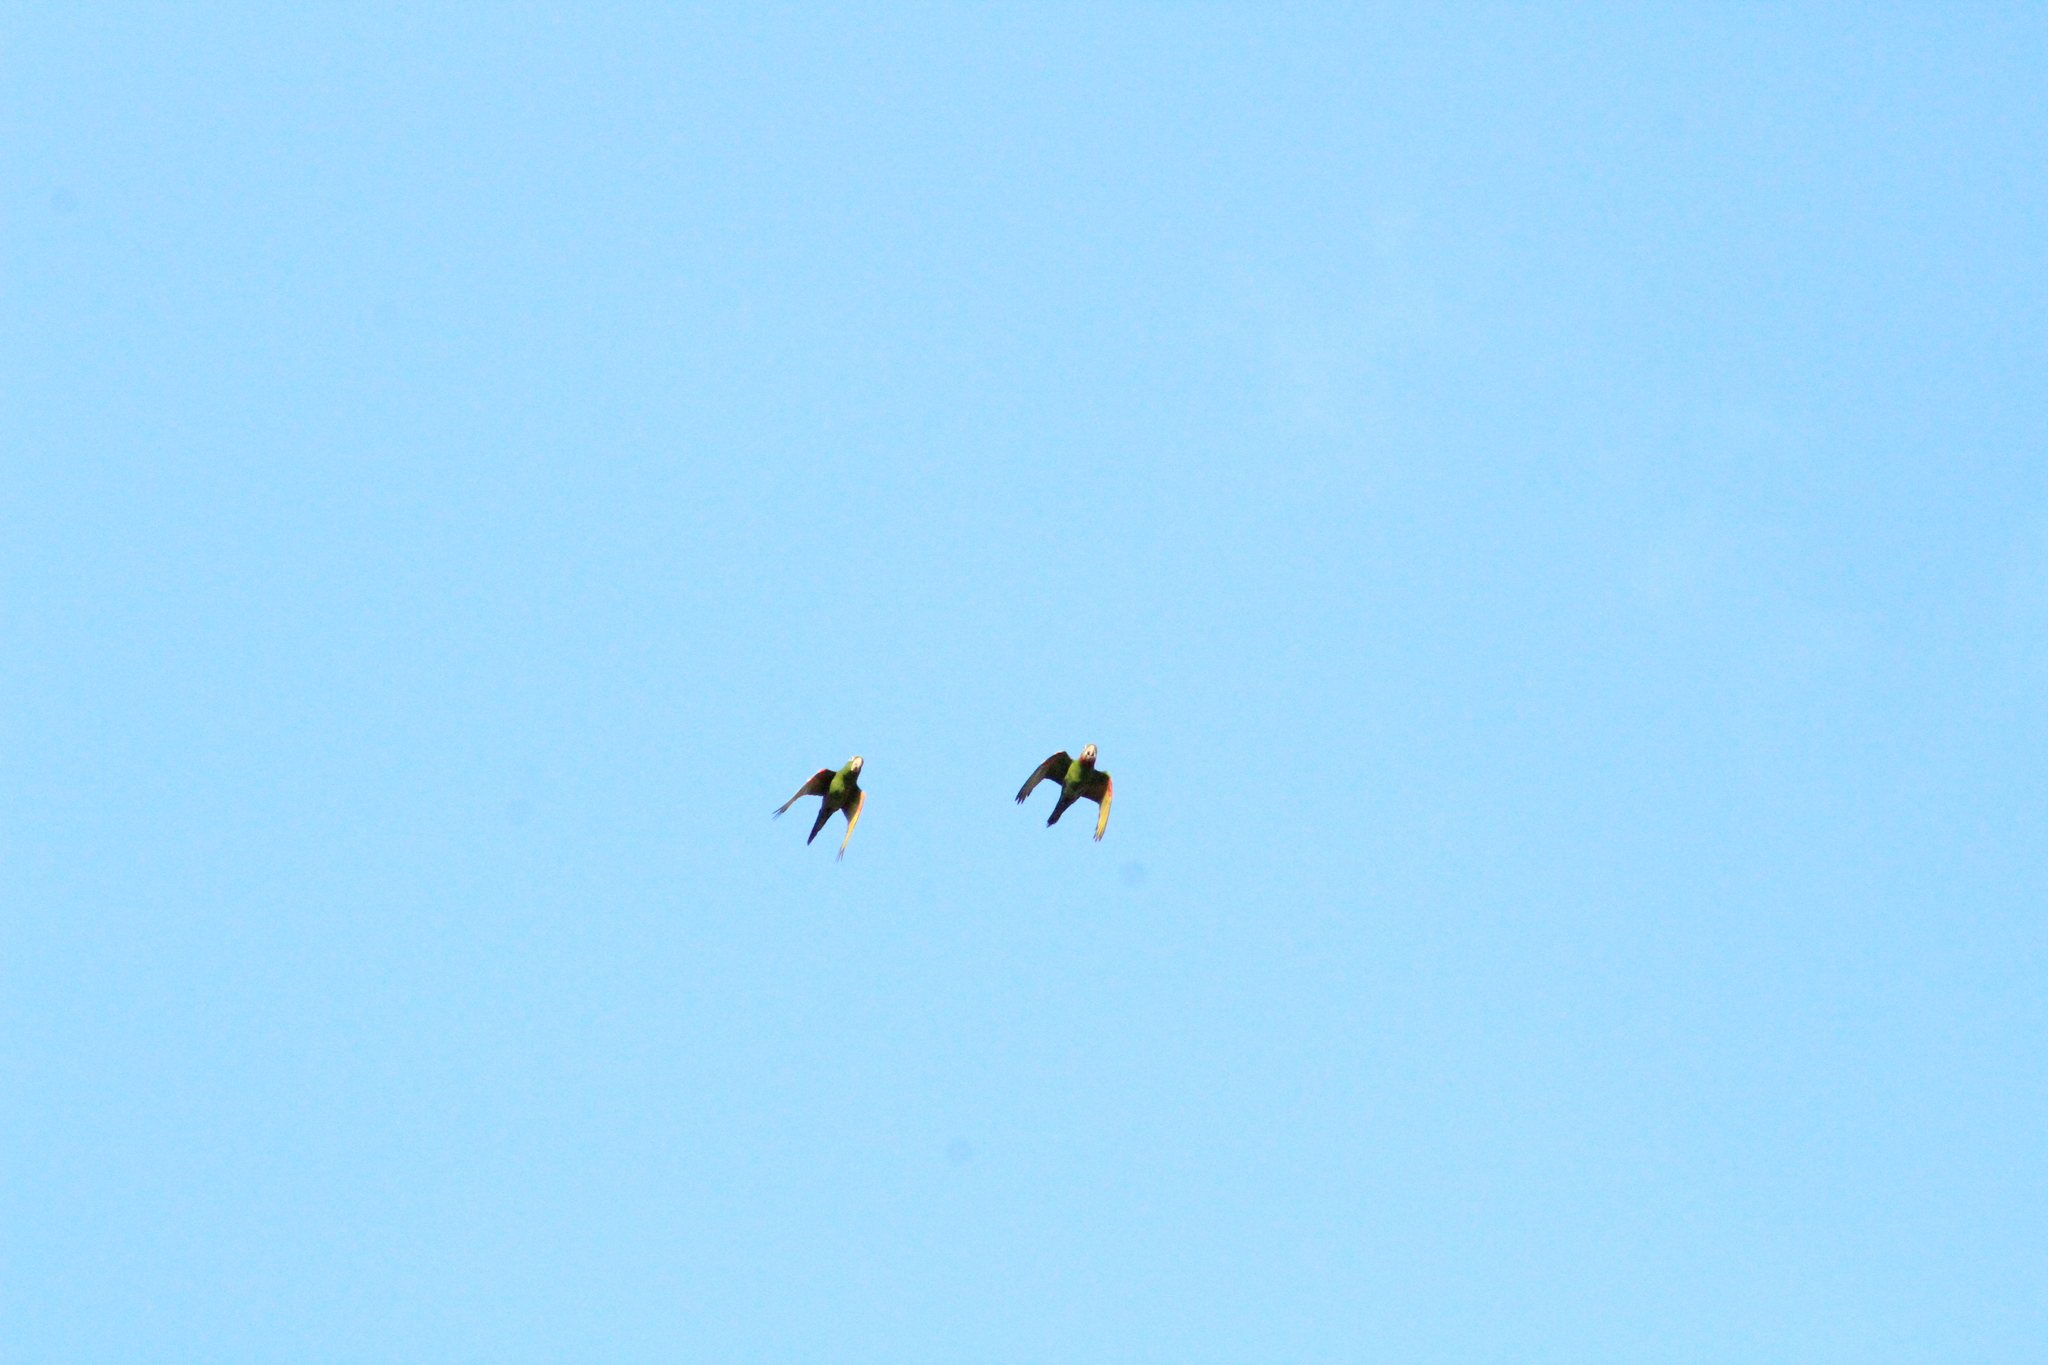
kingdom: Animalia
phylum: Chordata
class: Aves
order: Psittaciformes
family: Psittacidae
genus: Aratinga
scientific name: Aratinga leucophthalma
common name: White-eyed parakeet
